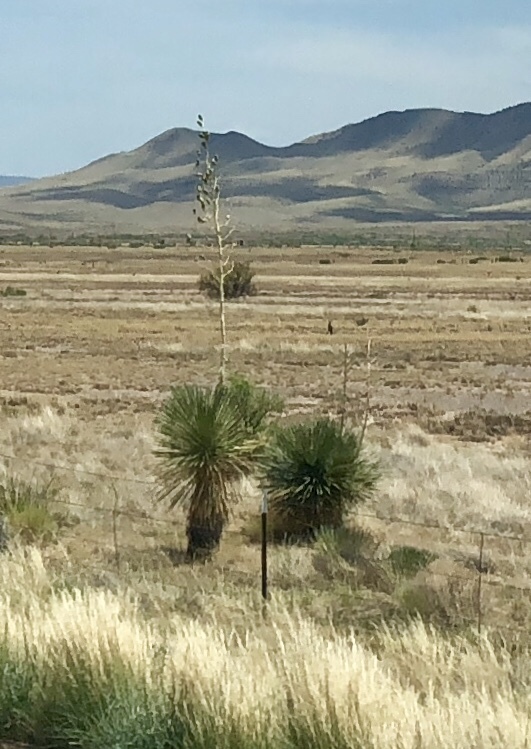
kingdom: Plantae
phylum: Tracheophyta
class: Liliopsida
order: Asparagales
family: Asparagaceae
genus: Yucca
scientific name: Yucca elata
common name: Palmella
